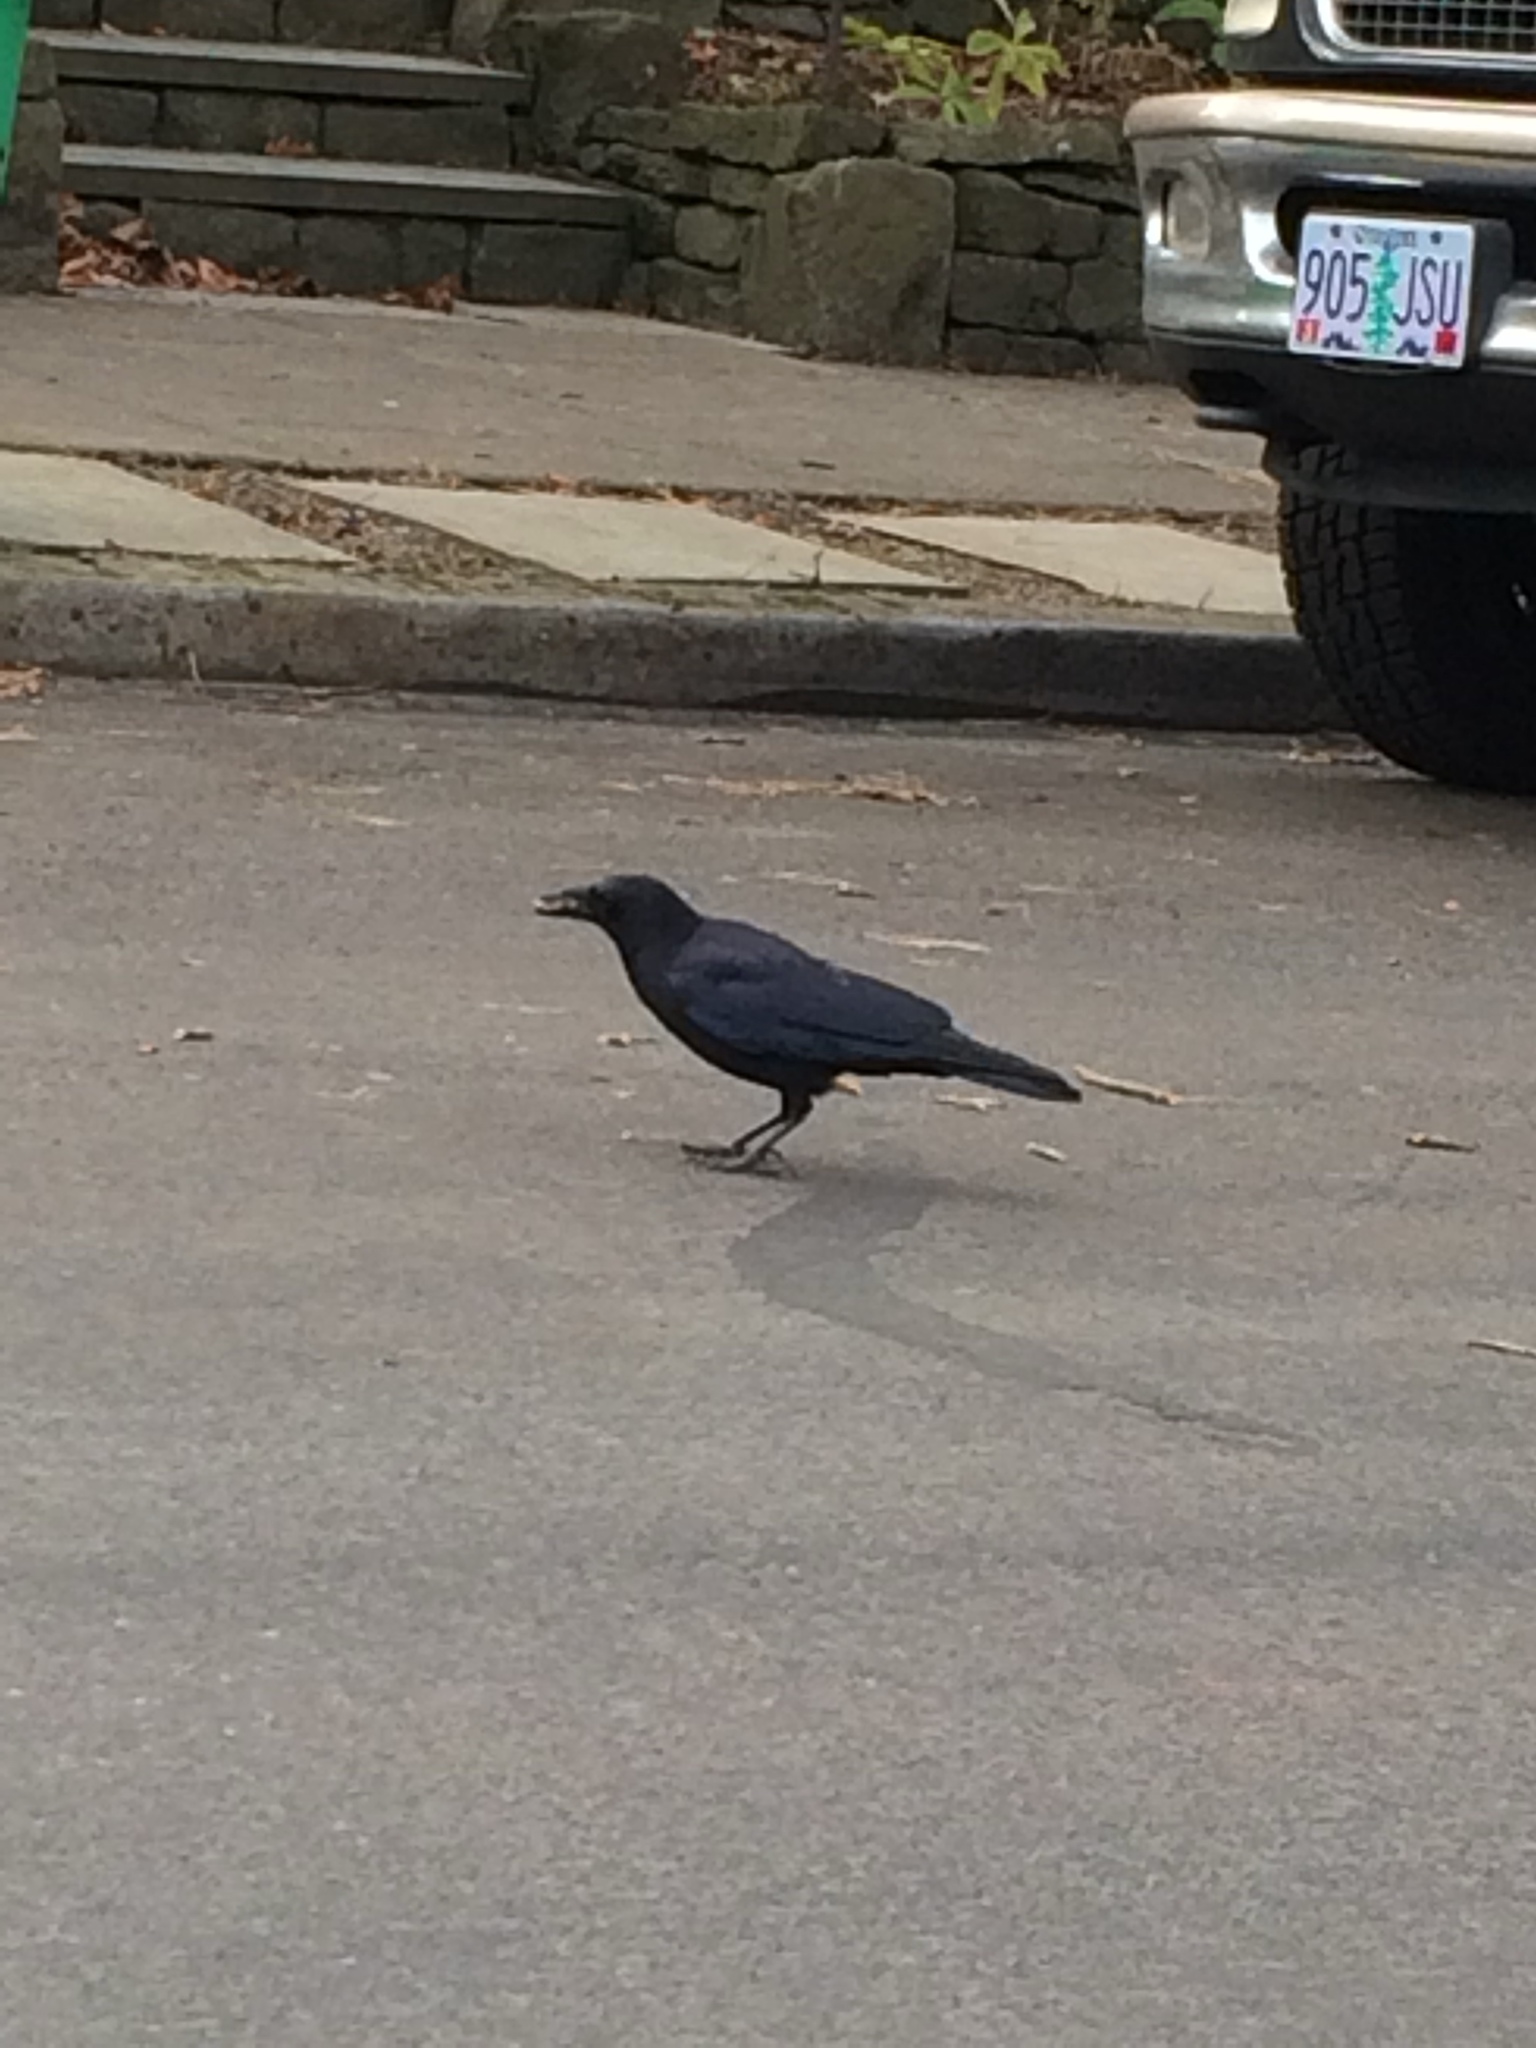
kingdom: Animalia
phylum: Chordata
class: Aves
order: Passeriformes
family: Corvidae
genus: Corvus
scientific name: Corvus brachyrhynchos
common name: American crow
